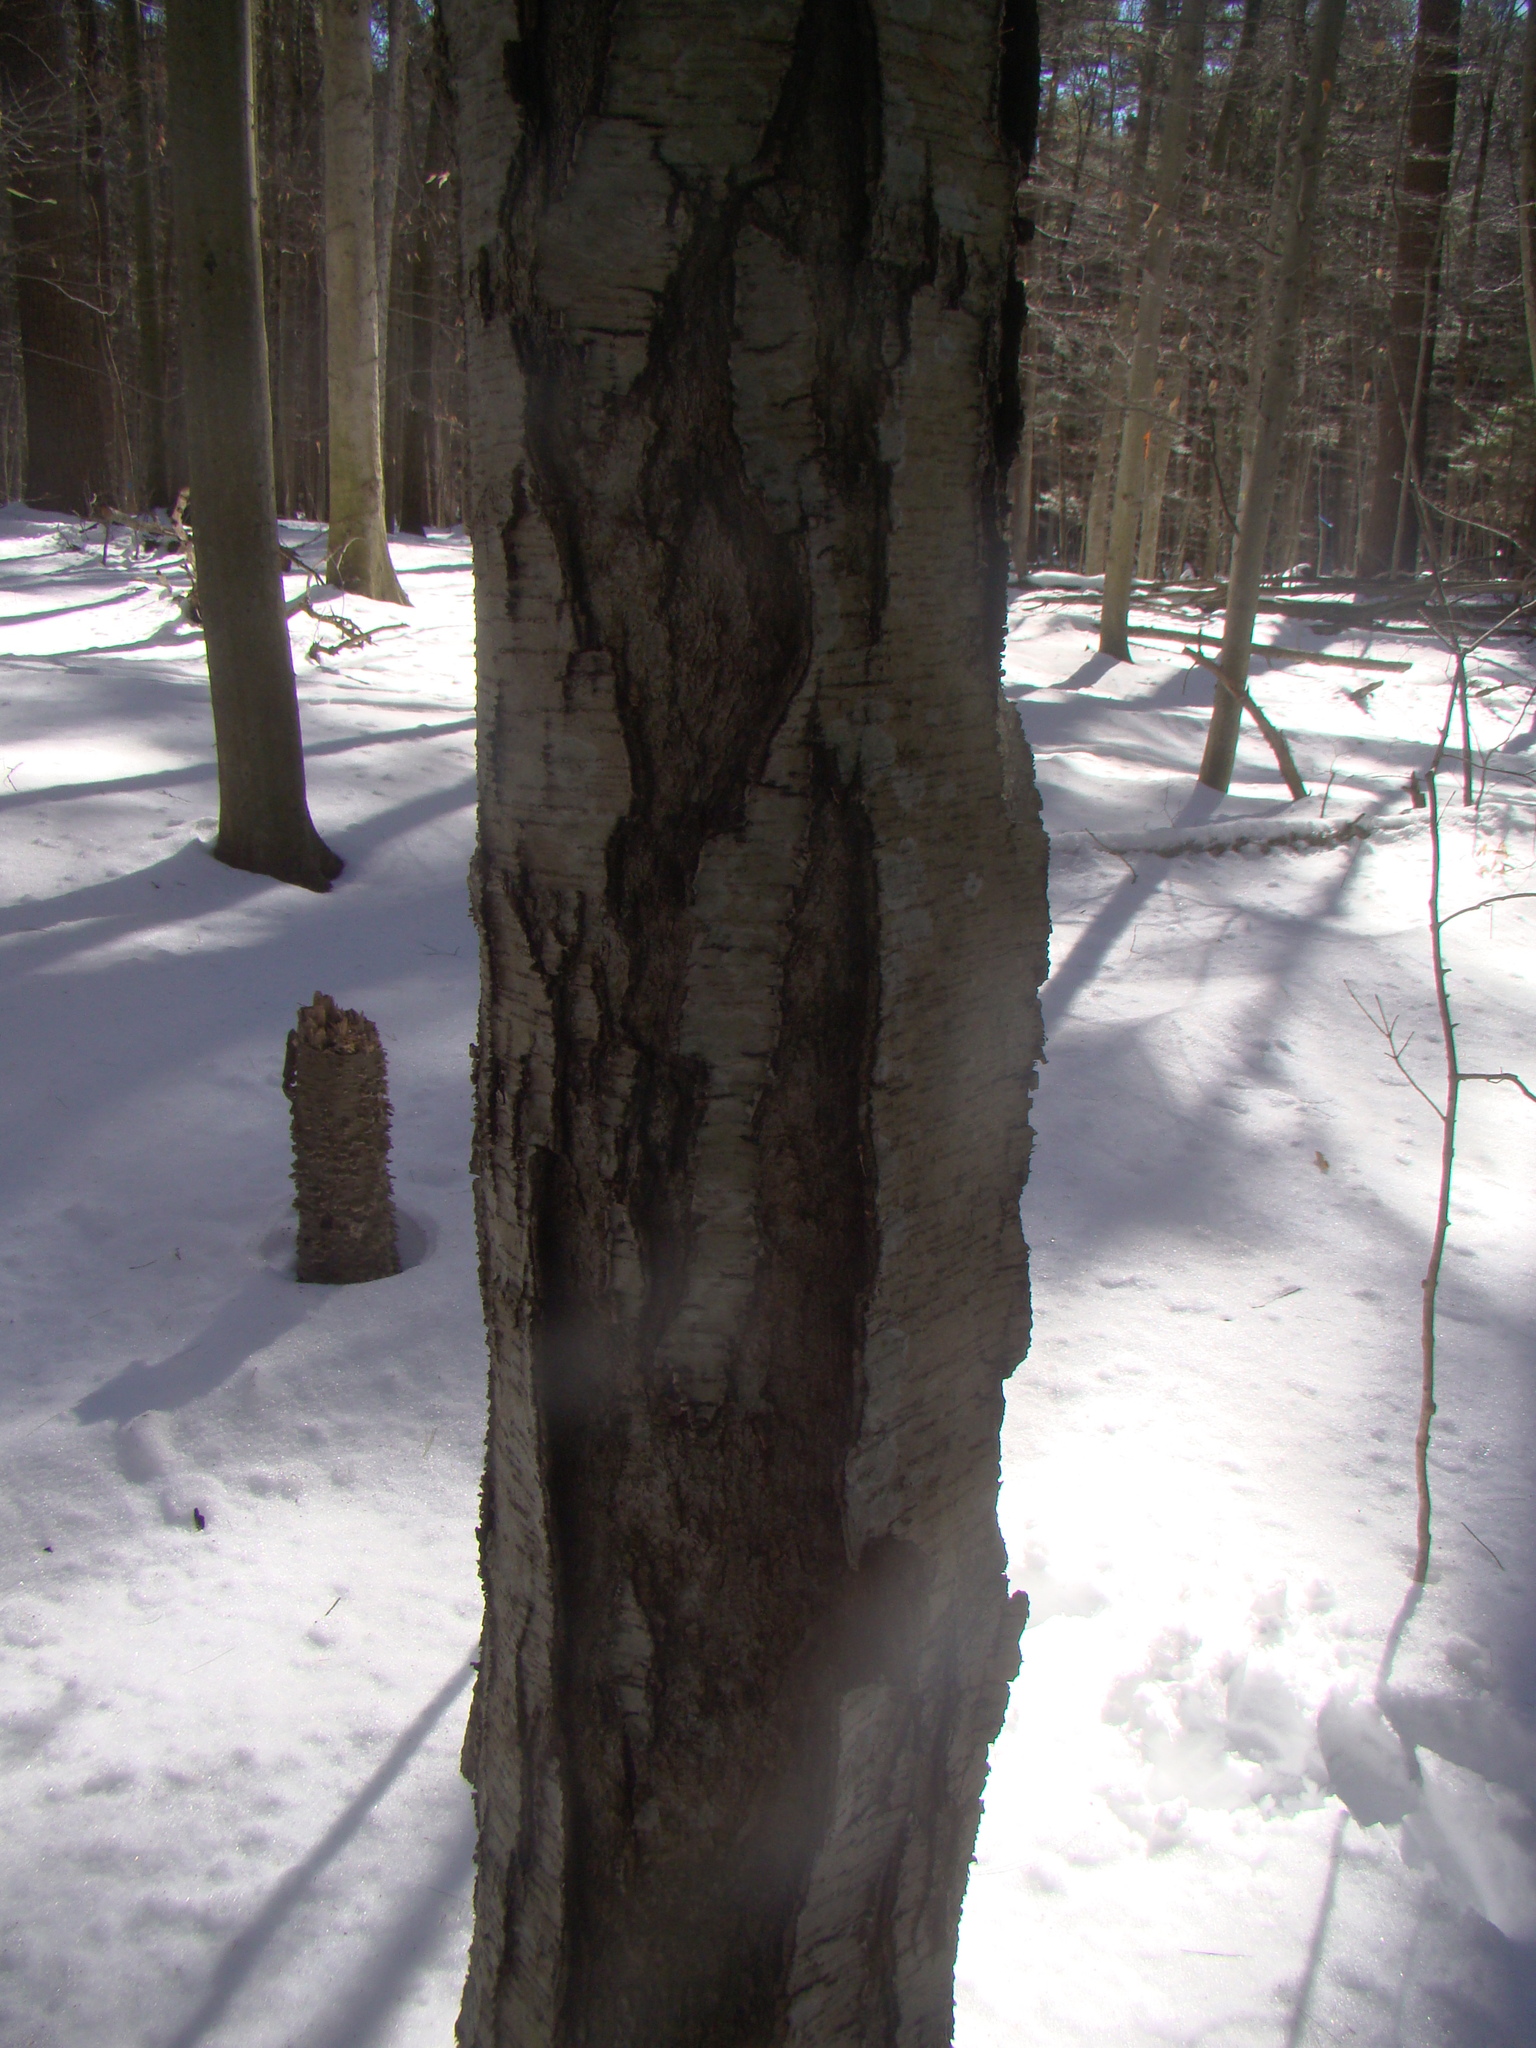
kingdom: Plantae
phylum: Tracheophyta
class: Magnoliopsida
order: Fagales
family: Betulaceae
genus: Betula
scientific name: Betula lenta
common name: Black birch
